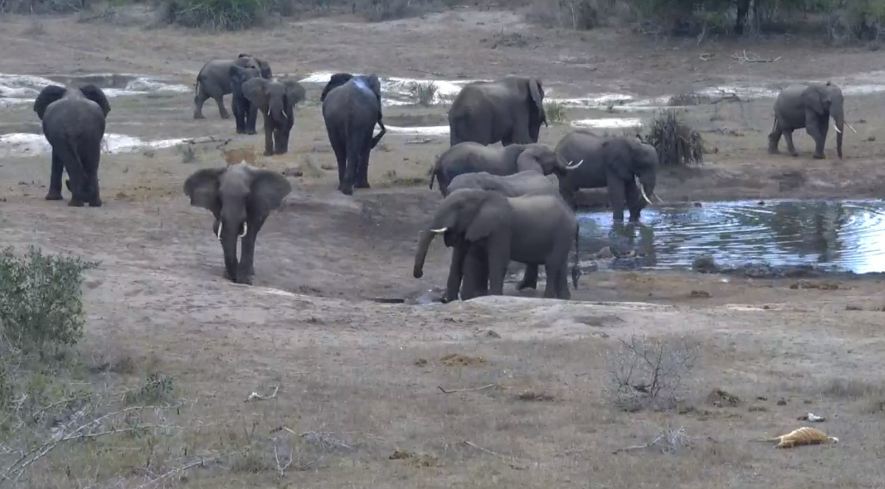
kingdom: Animalia
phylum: Chordata
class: Mammalia
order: Proboscidea
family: Elephantidae
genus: Loxodonta
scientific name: Loxodonta africana
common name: African elephant
